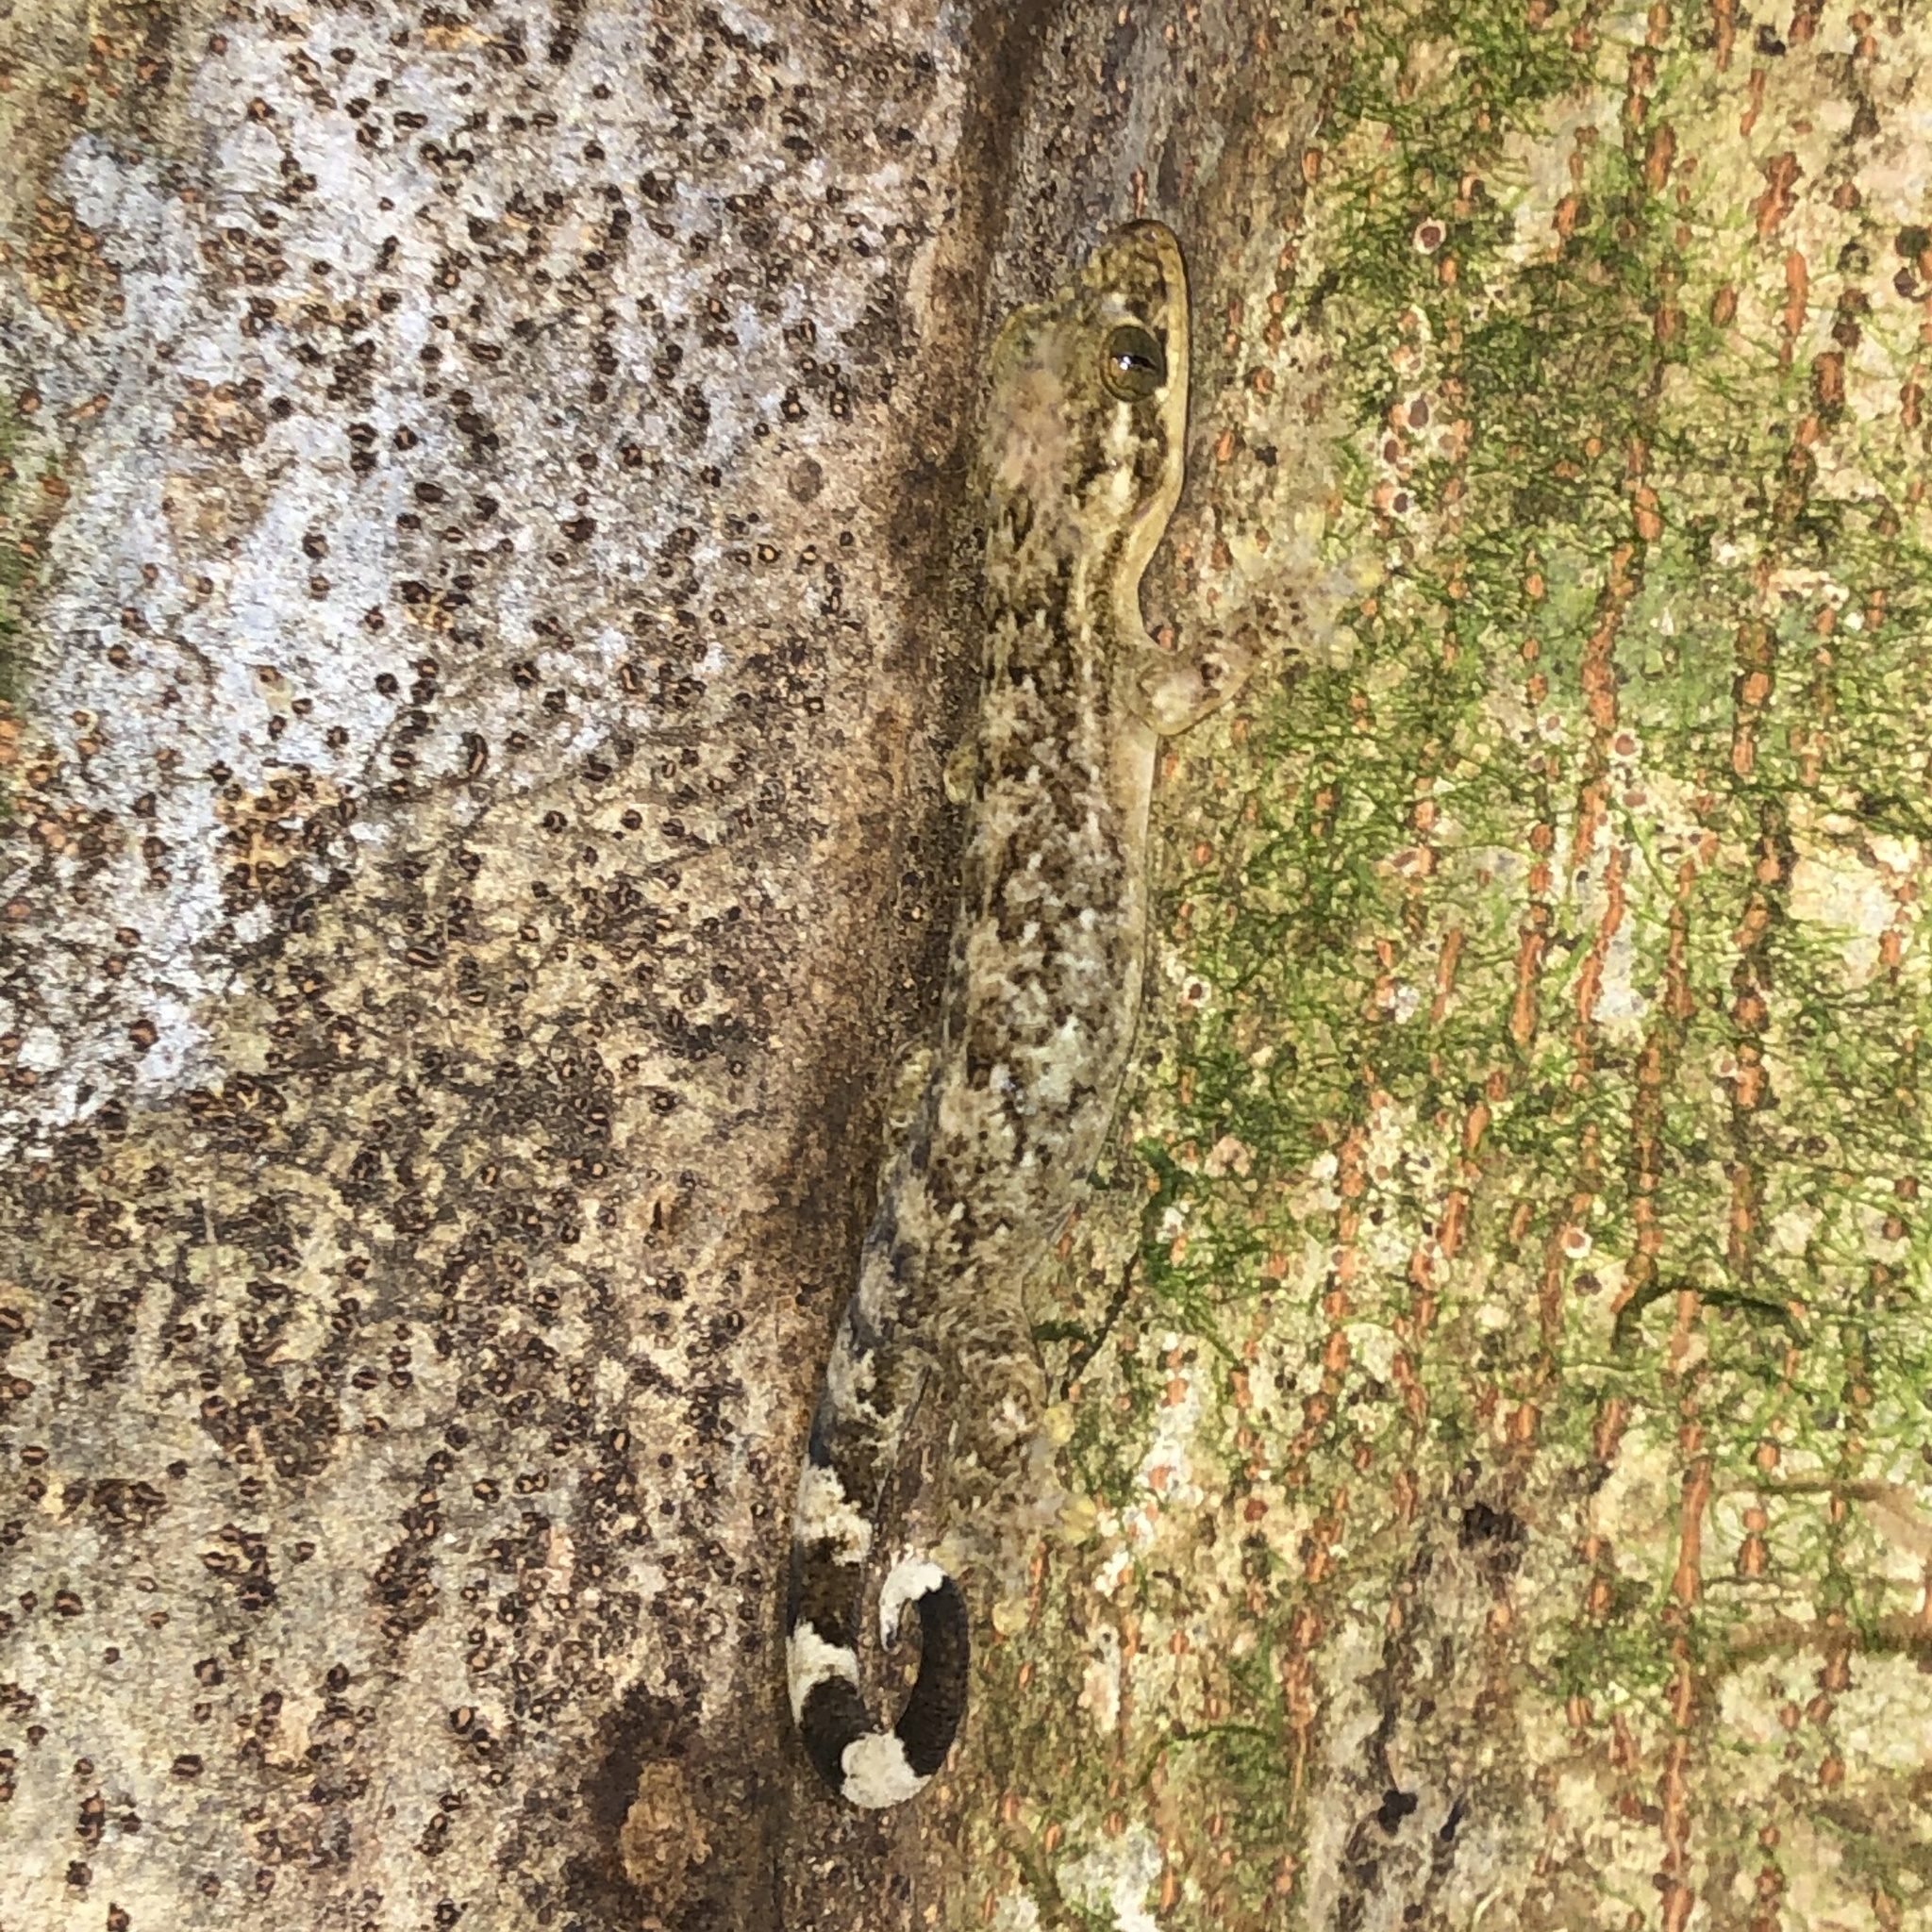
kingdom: Animalia
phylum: Chordata
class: Squamata
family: Phyllodactylidae
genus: Thecadactylus
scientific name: Thecadactylus rapicauda
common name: Turnip-tailed gecko
